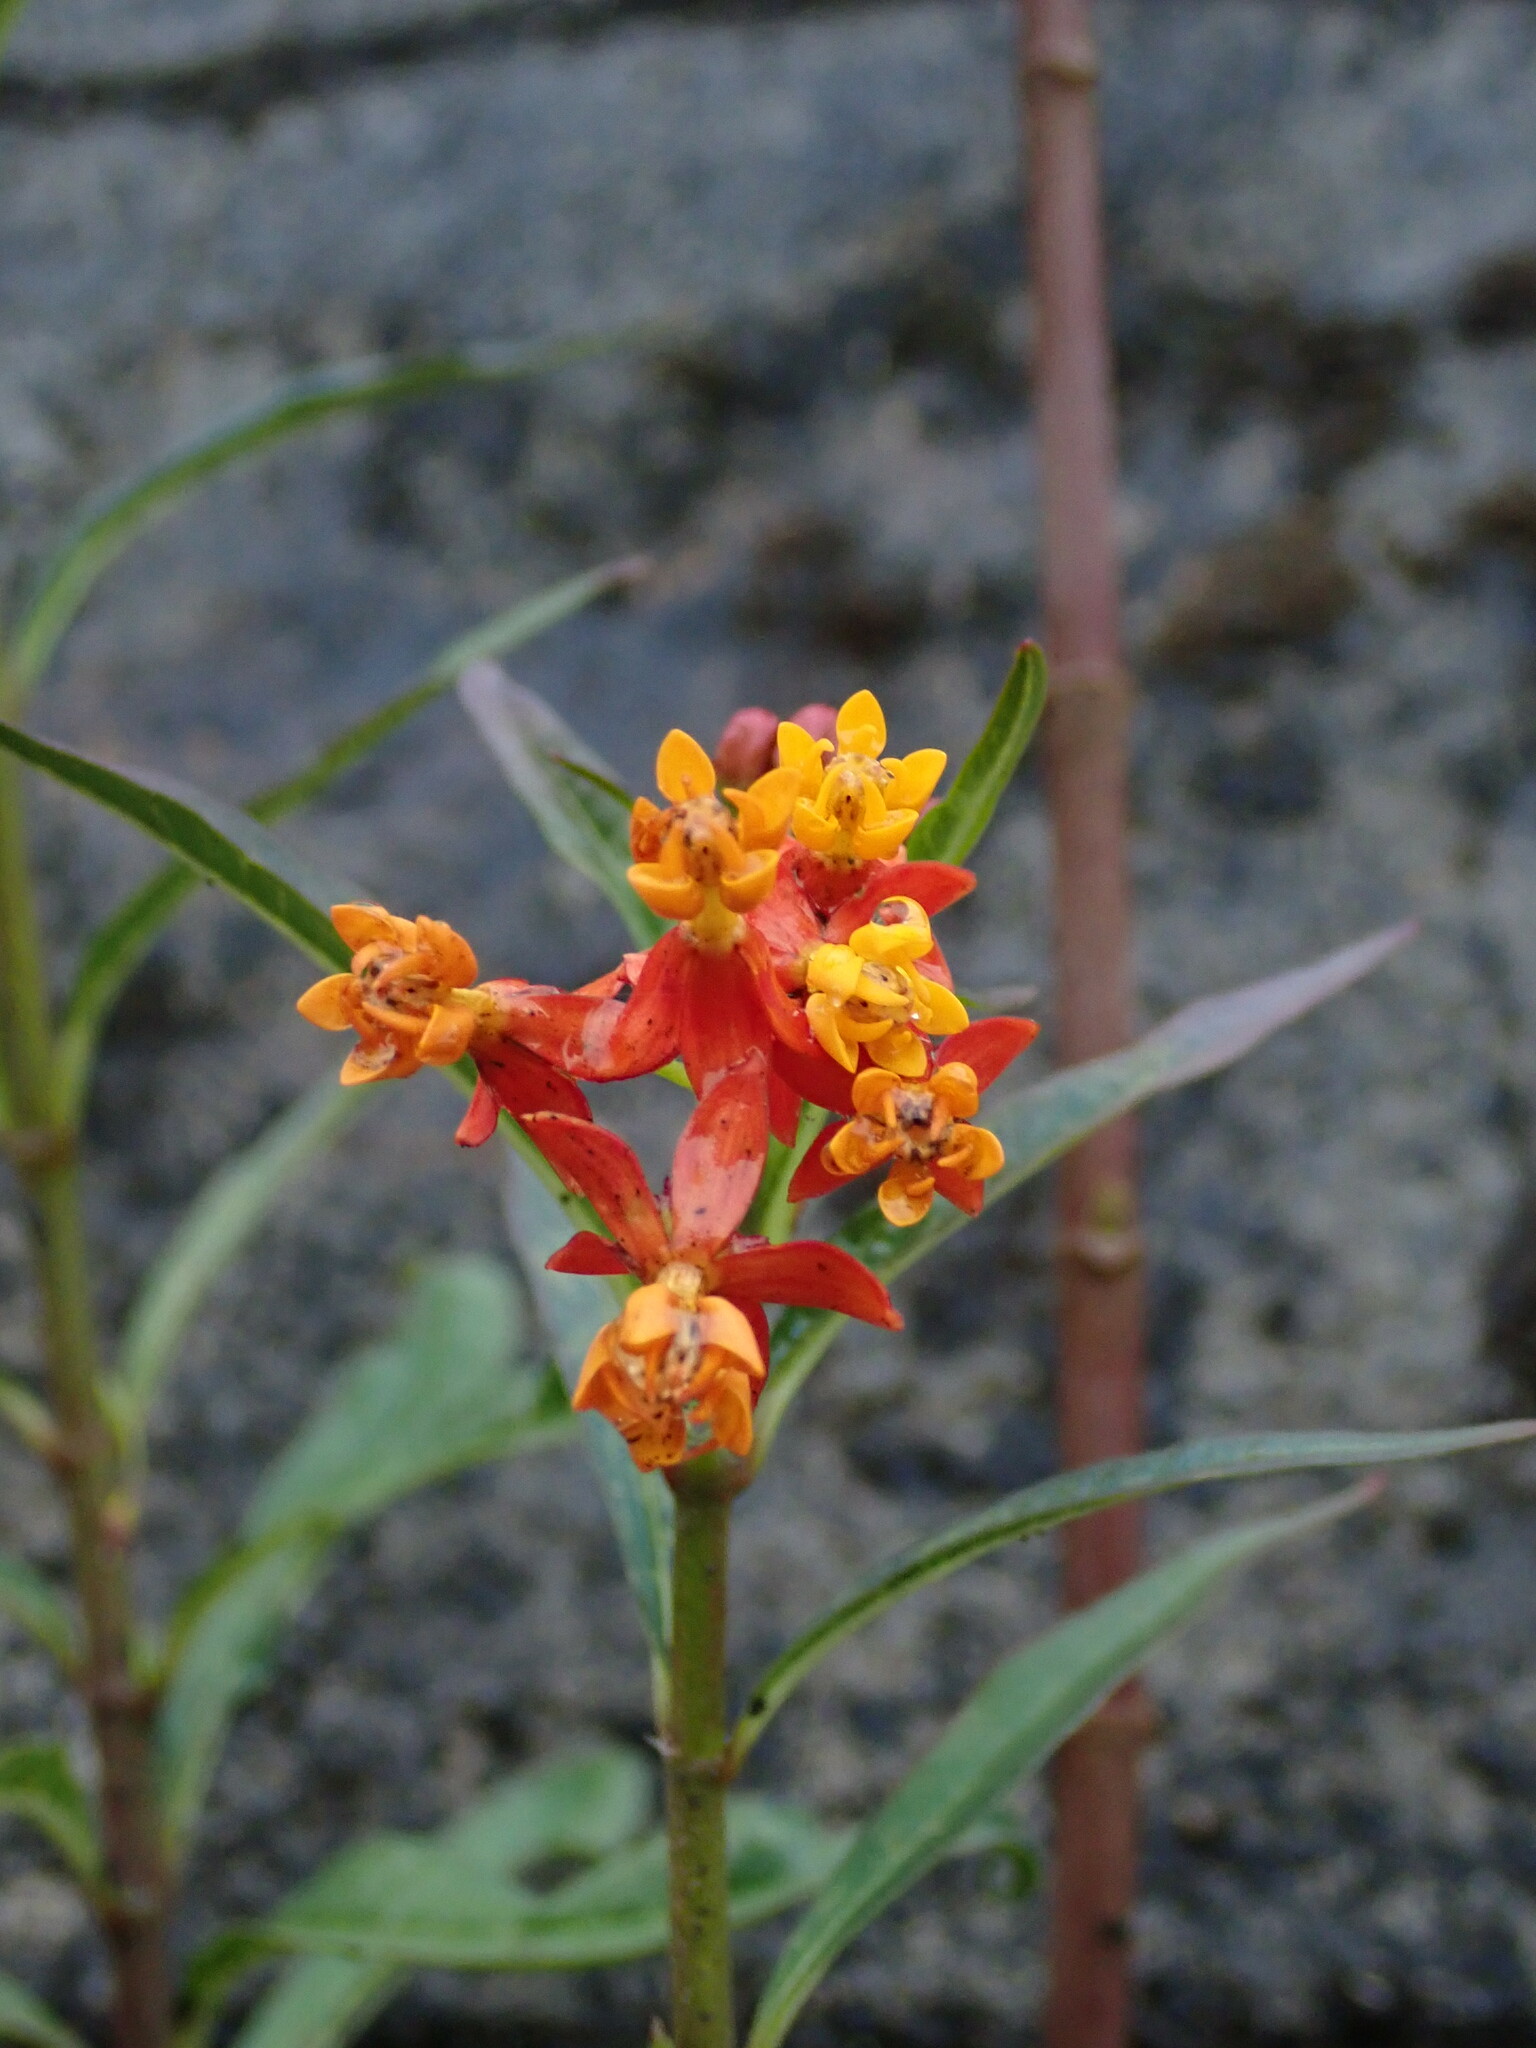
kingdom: Plantae
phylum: Tracheophyta
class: Magnoliopsida
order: Gentianales
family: Apocynaceae
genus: Asclepias
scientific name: Asclepias curassavica
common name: Bloodflower
